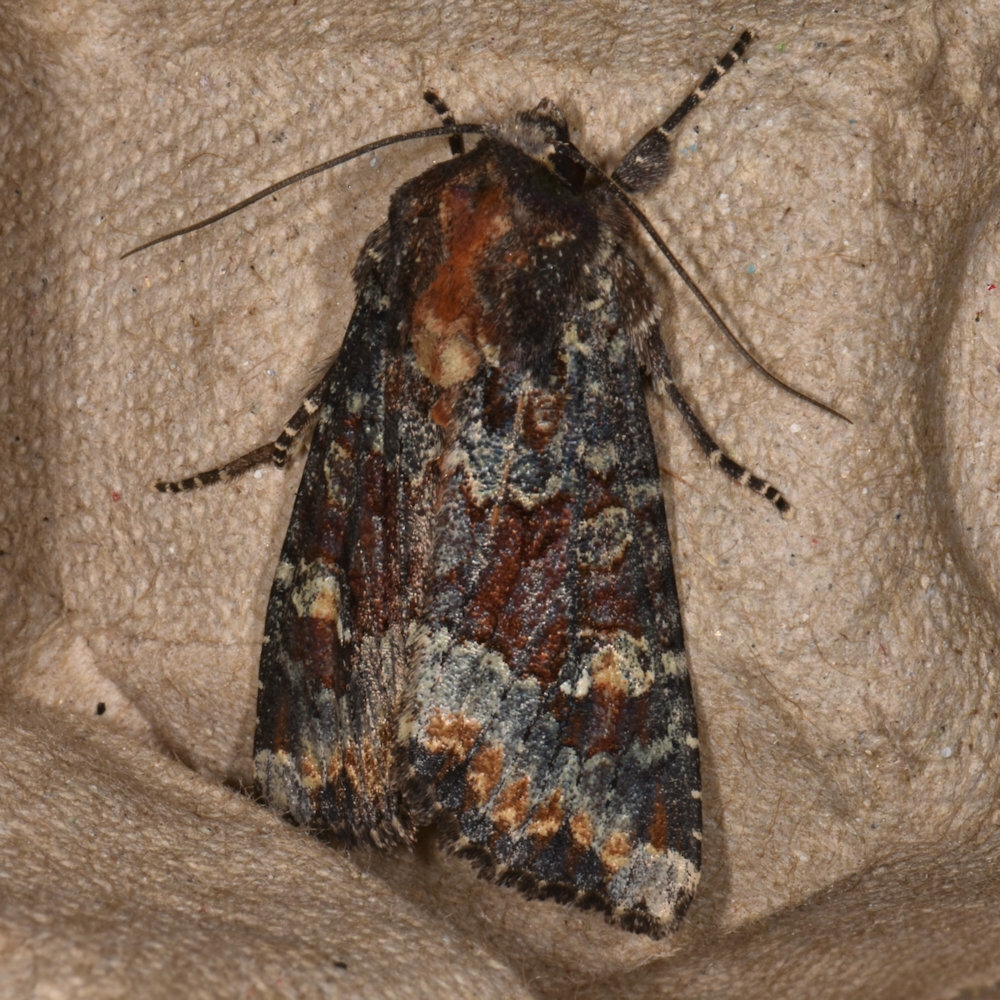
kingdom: Animalia
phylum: Arthropoda
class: Insecta
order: Lepidoptera
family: Noctuidae
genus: Apamea
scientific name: Apamea amputatrix
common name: Yellow-headed cutworm moth
